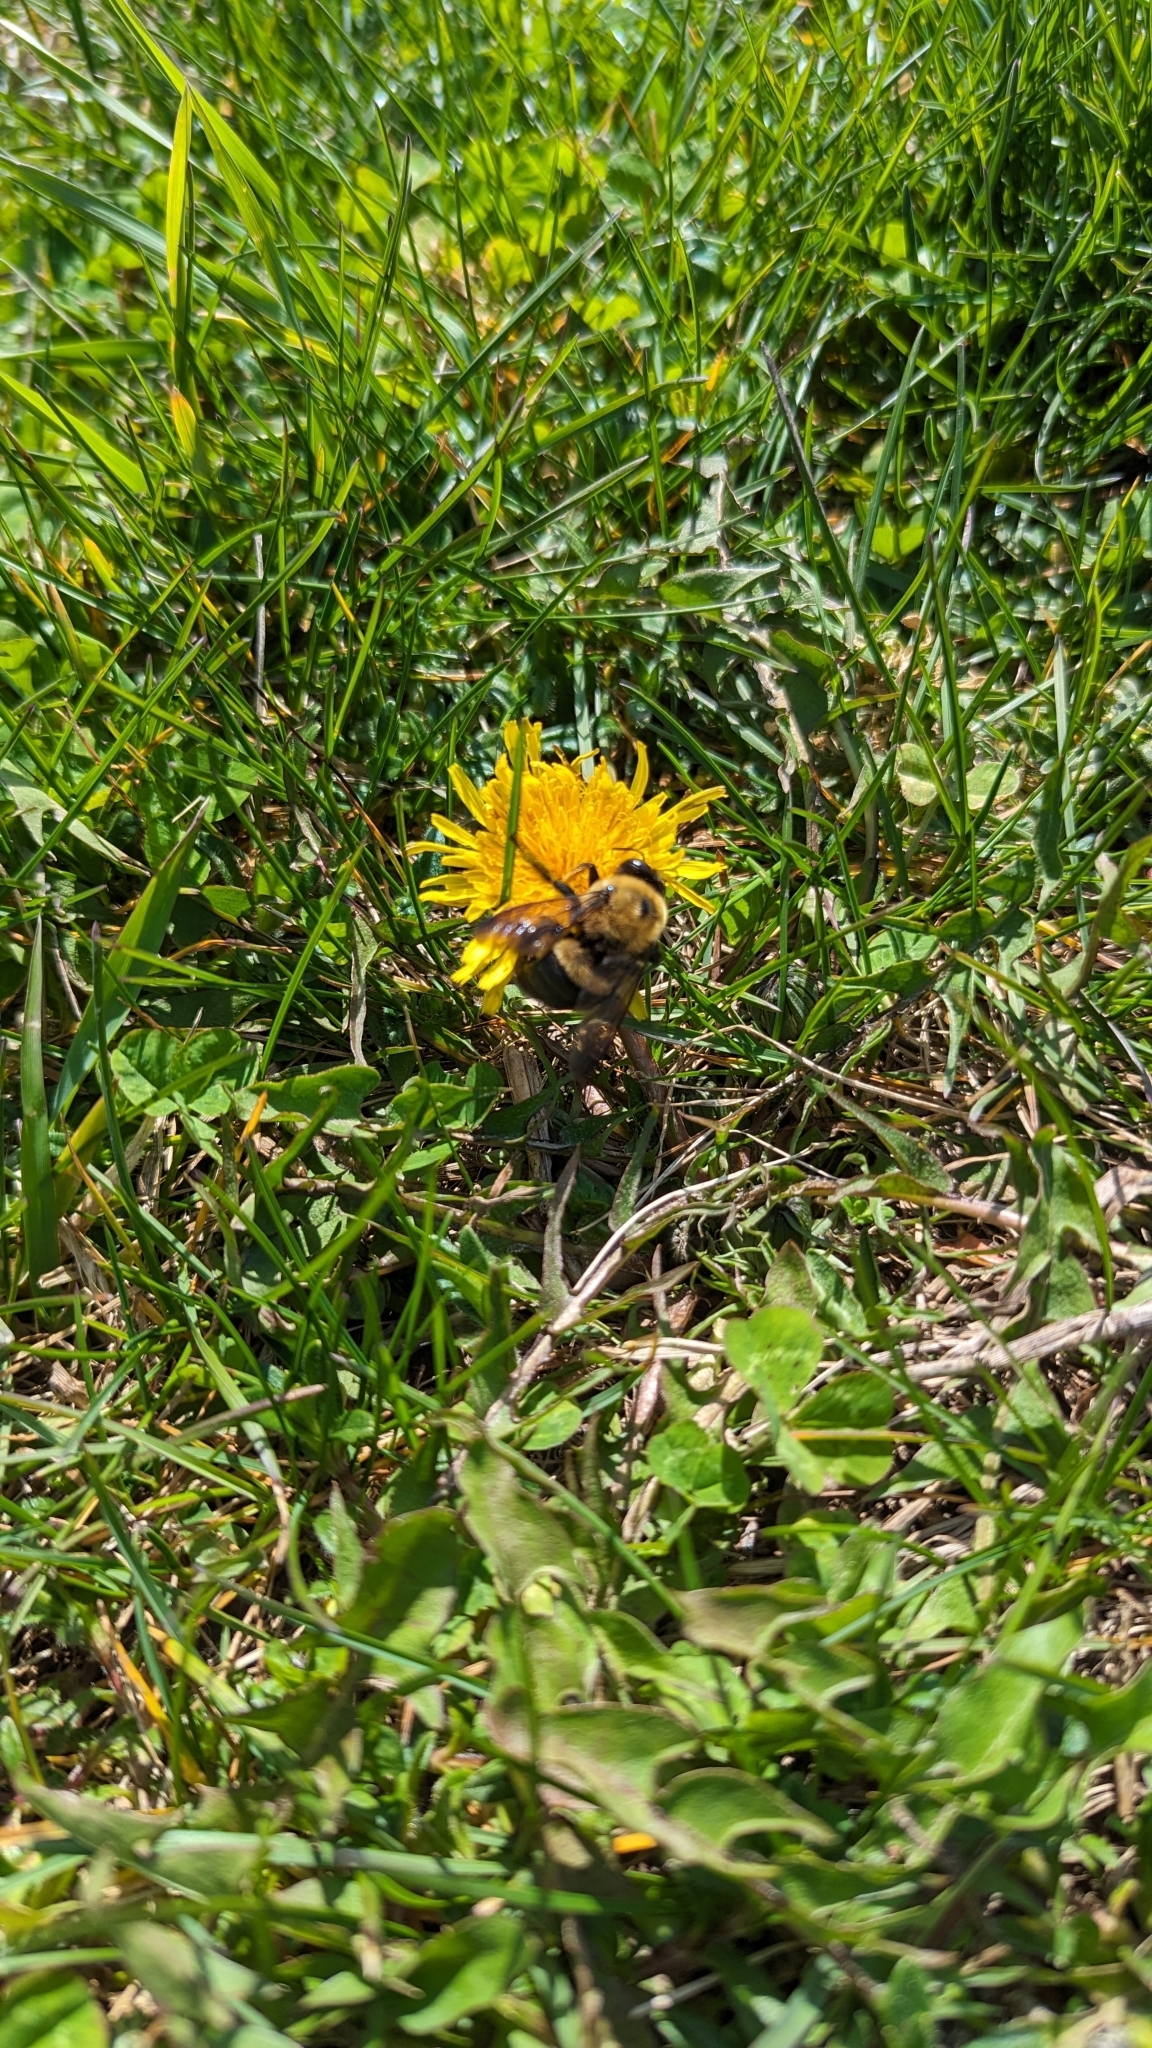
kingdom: Animalia
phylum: Arthropoda
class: Insecta
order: Hymenoptera
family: Apidae
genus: Xylocopa
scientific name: Xylocopa virginica
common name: Carpenter bee
